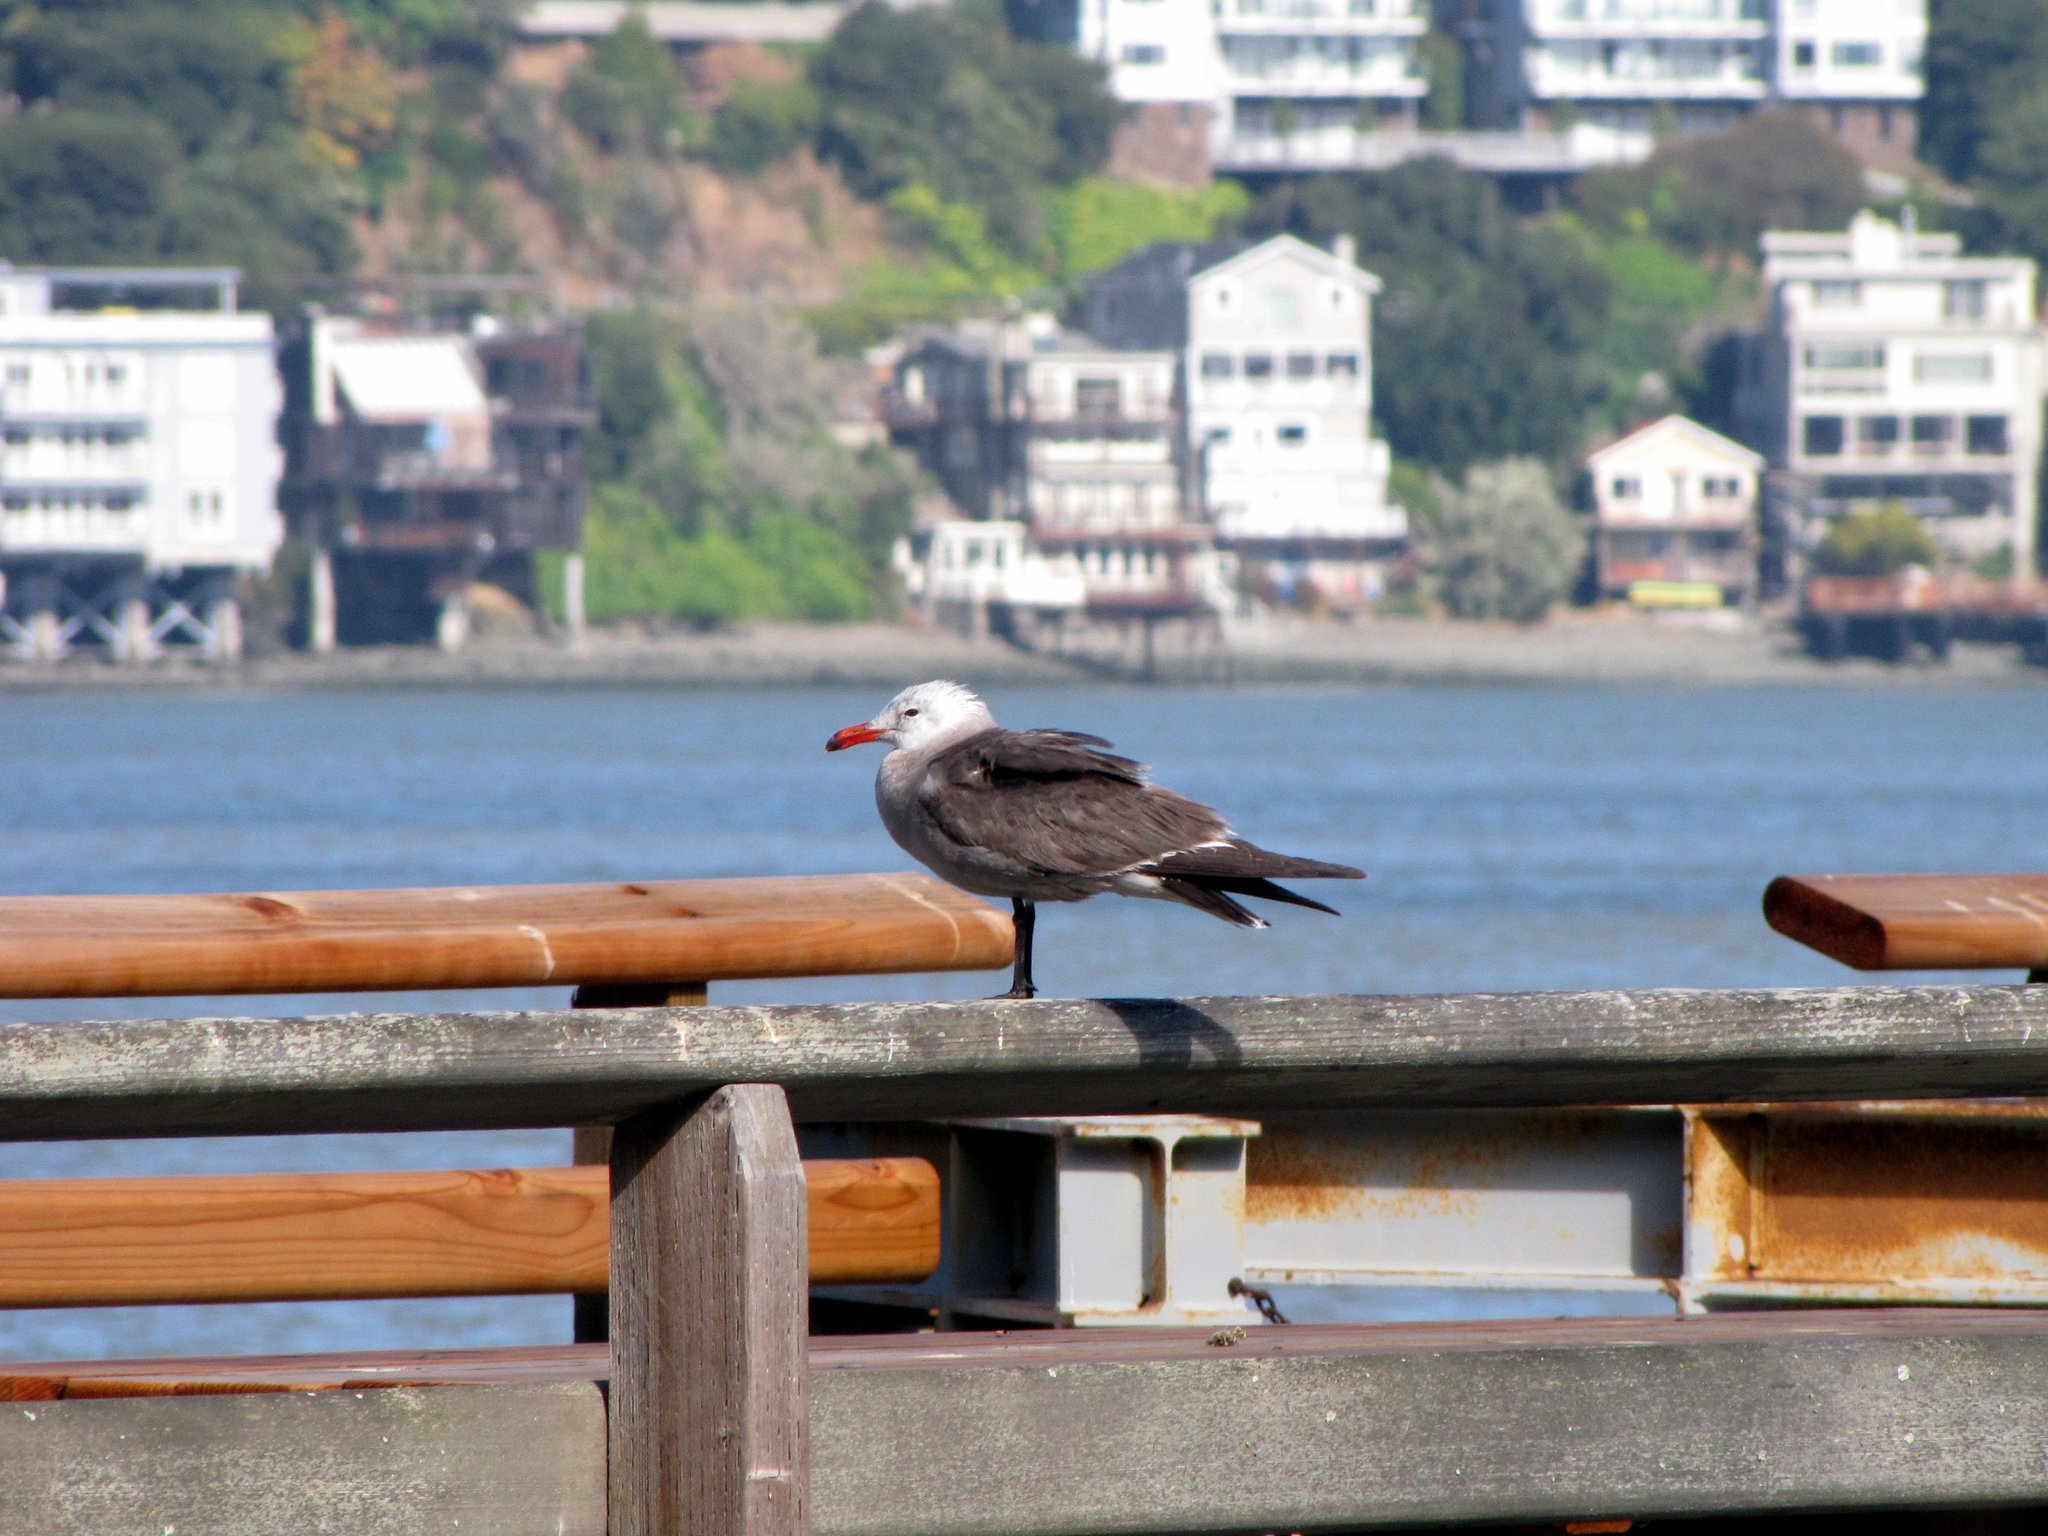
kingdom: Animalia
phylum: Chordata
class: Aves
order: Charadriiformes
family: Laridae
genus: Larus
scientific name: Larus heermanni
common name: Heermann's gull
